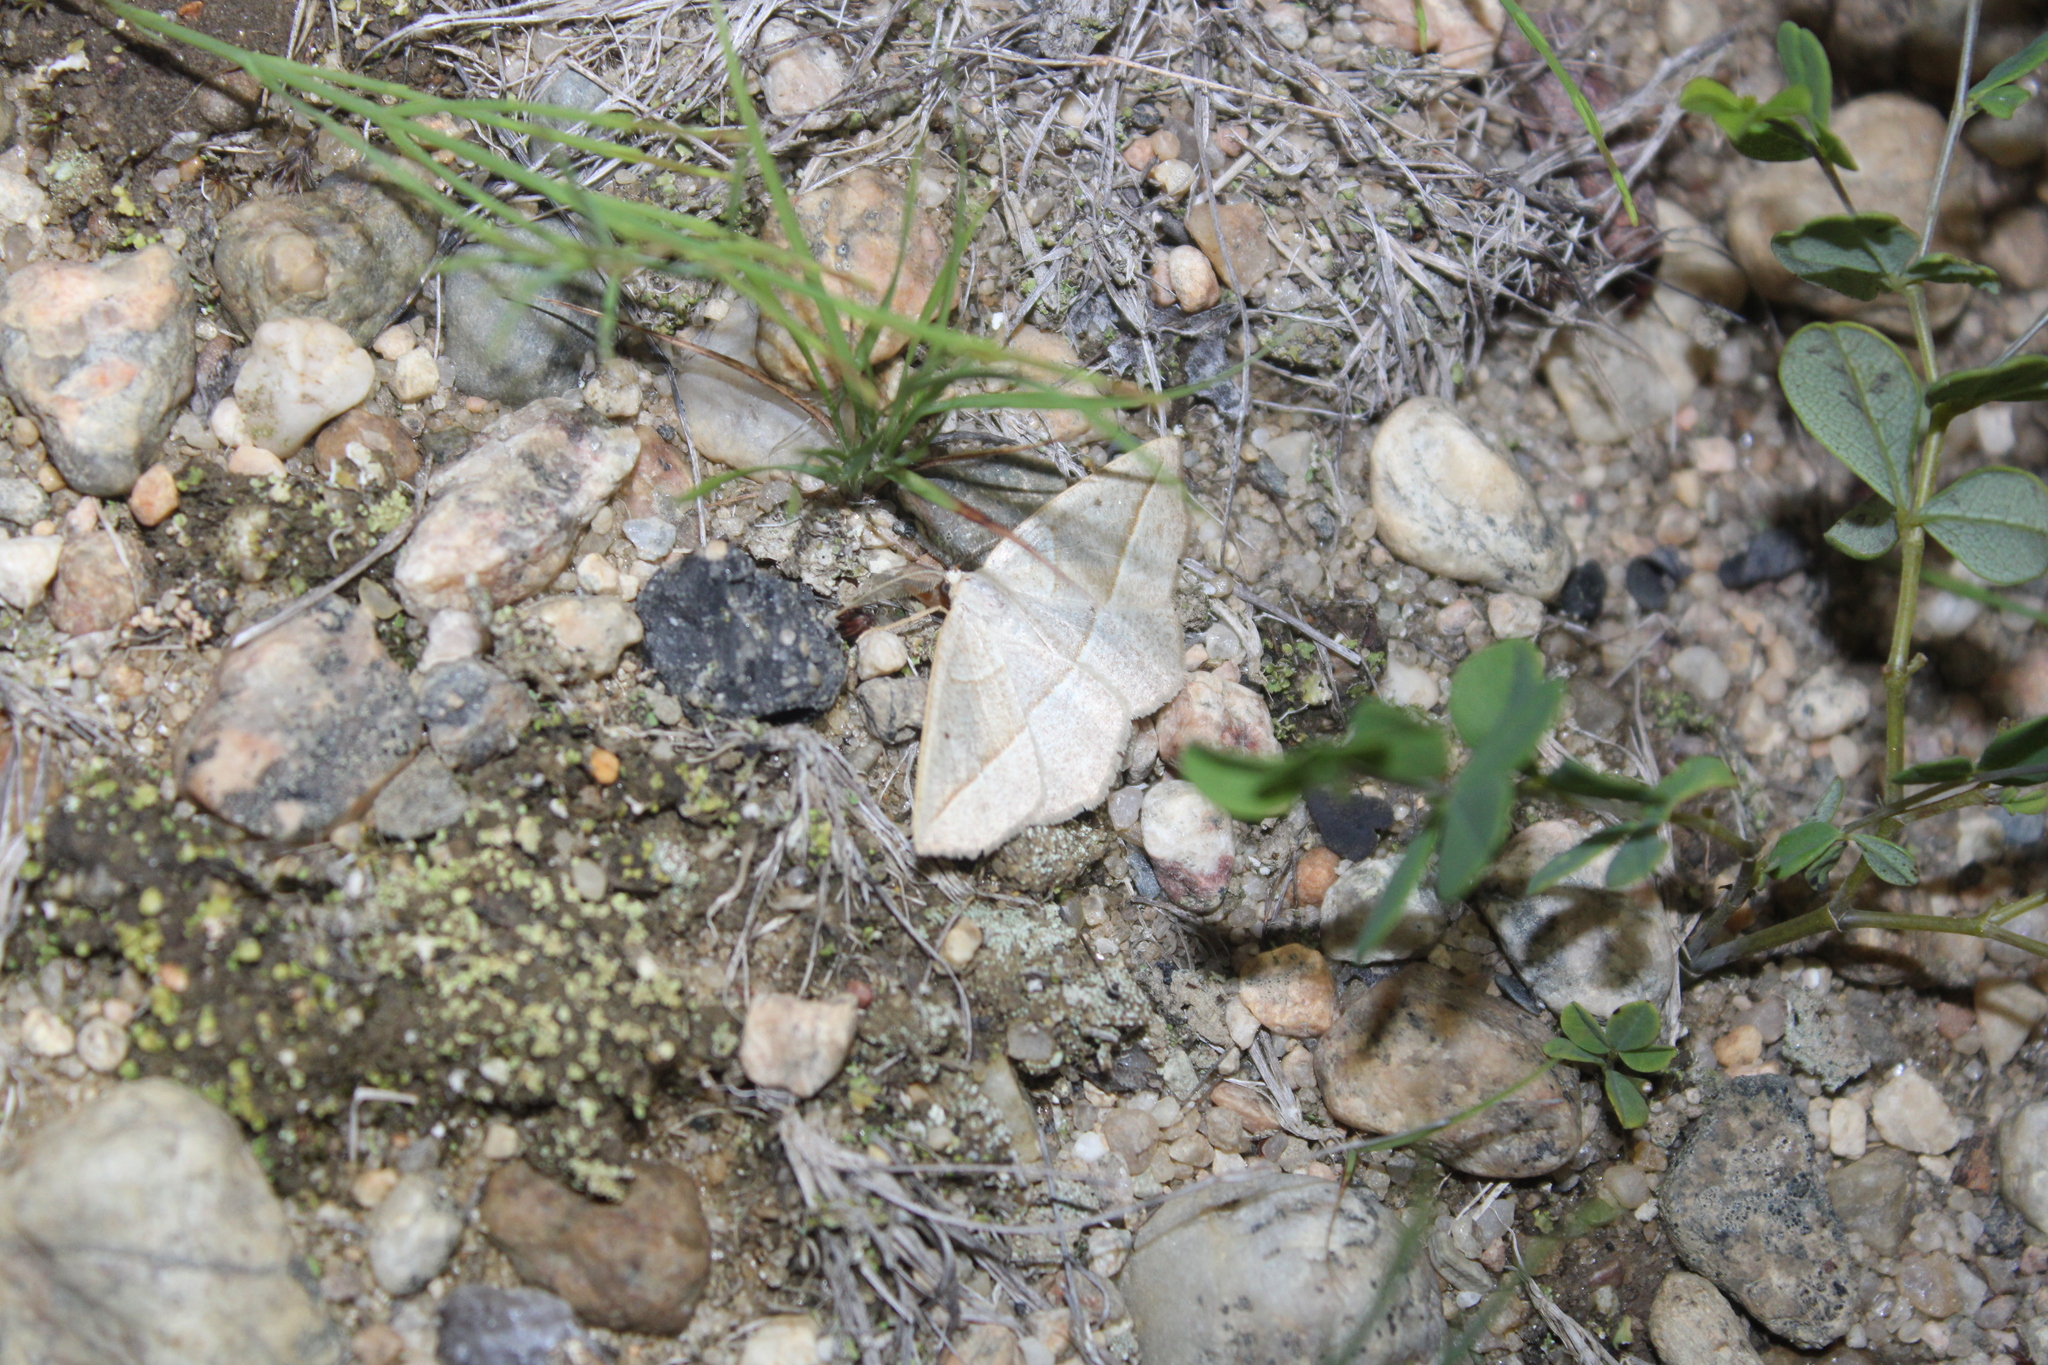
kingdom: Animalia
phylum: Arthropoda
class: Insecta
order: Lepidoptera
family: Geometridae
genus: Eusarca
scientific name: Eusarca confusaria
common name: Confused eusarca
